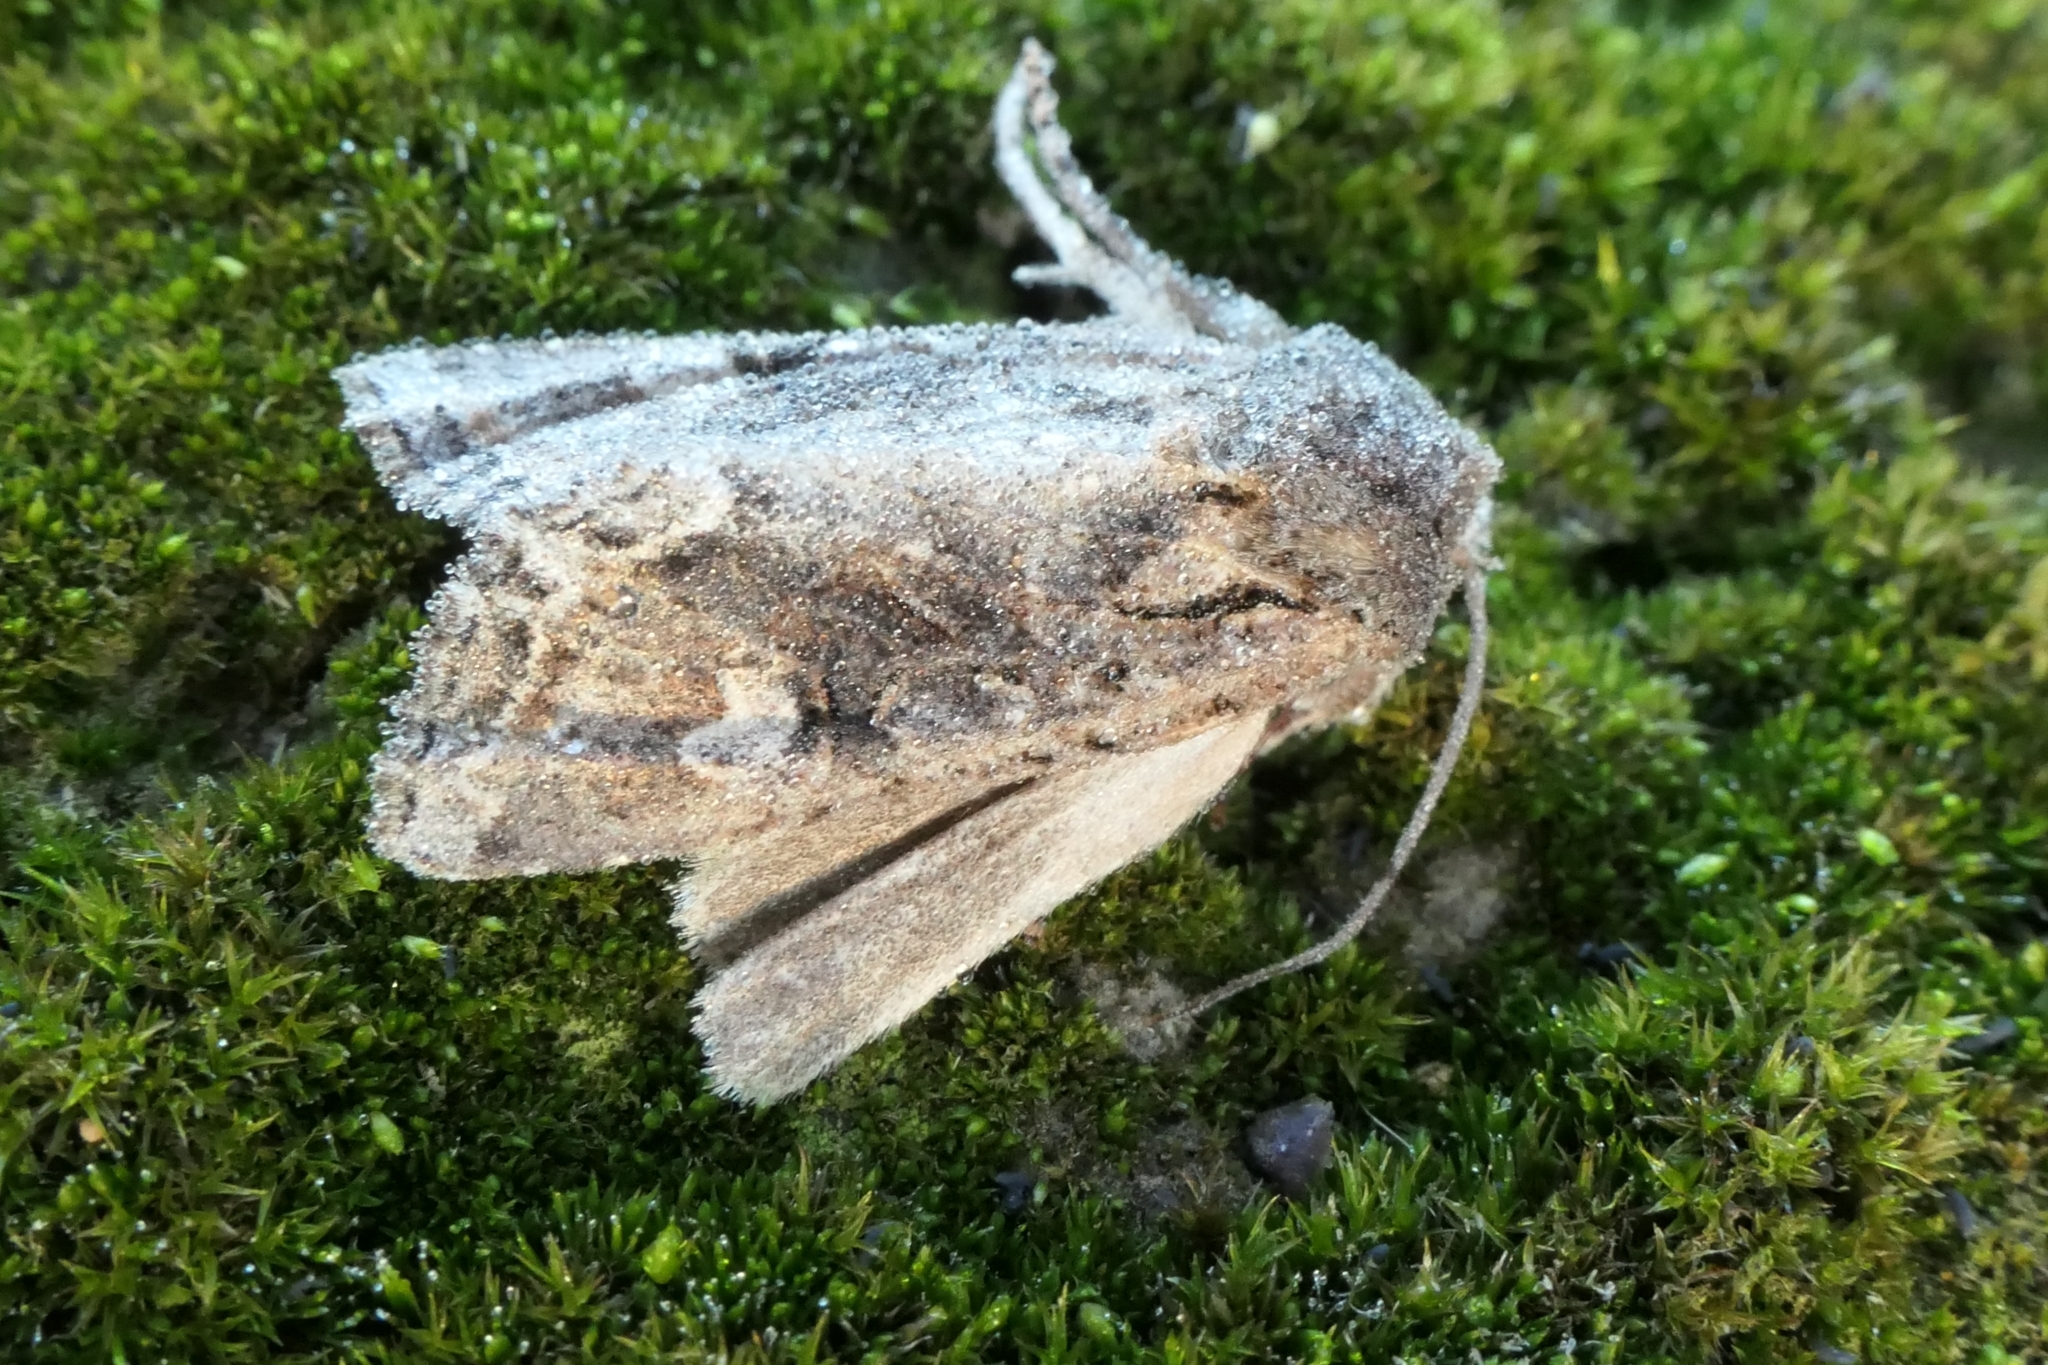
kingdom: Animalia
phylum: Arthropoda
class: Insecta
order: Lepidoptera
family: Noctuidae
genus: Ichneutica
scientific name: Ichneutica
